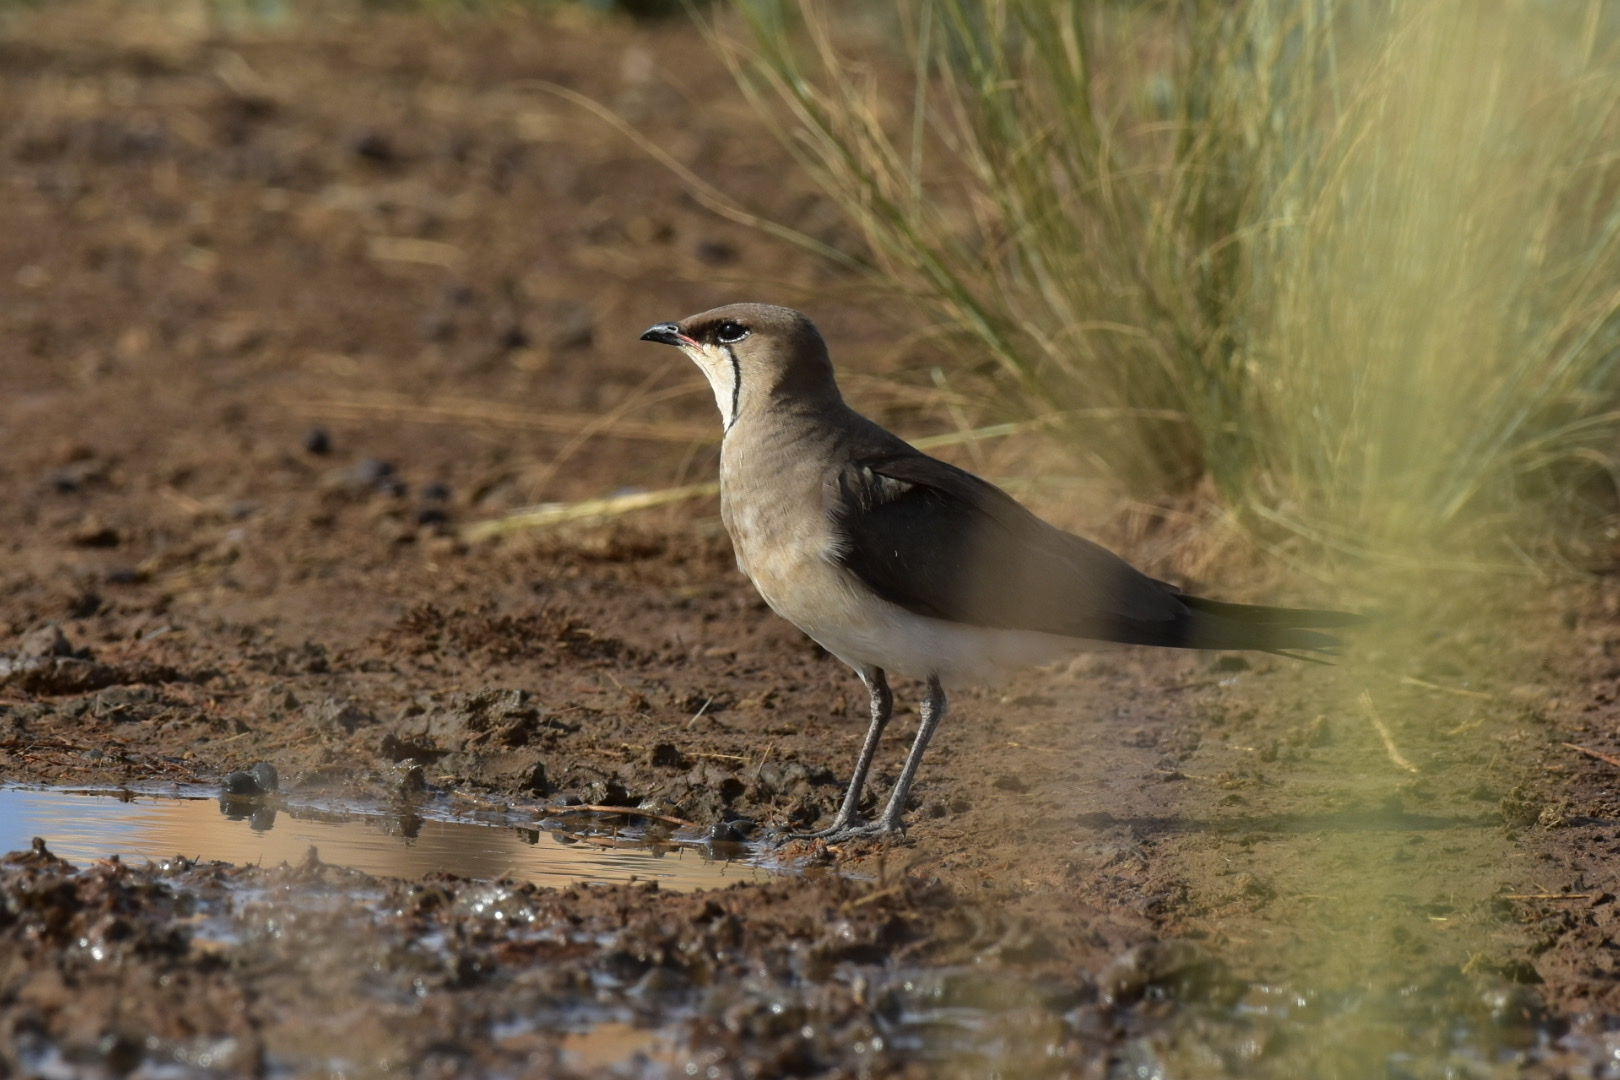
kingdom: Animalia
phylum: Chordata
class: Aves
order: Charadriiformes
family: Glareolidae
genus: Glareola
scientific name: Glareola nordmanni
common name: Black-winged pratincole
